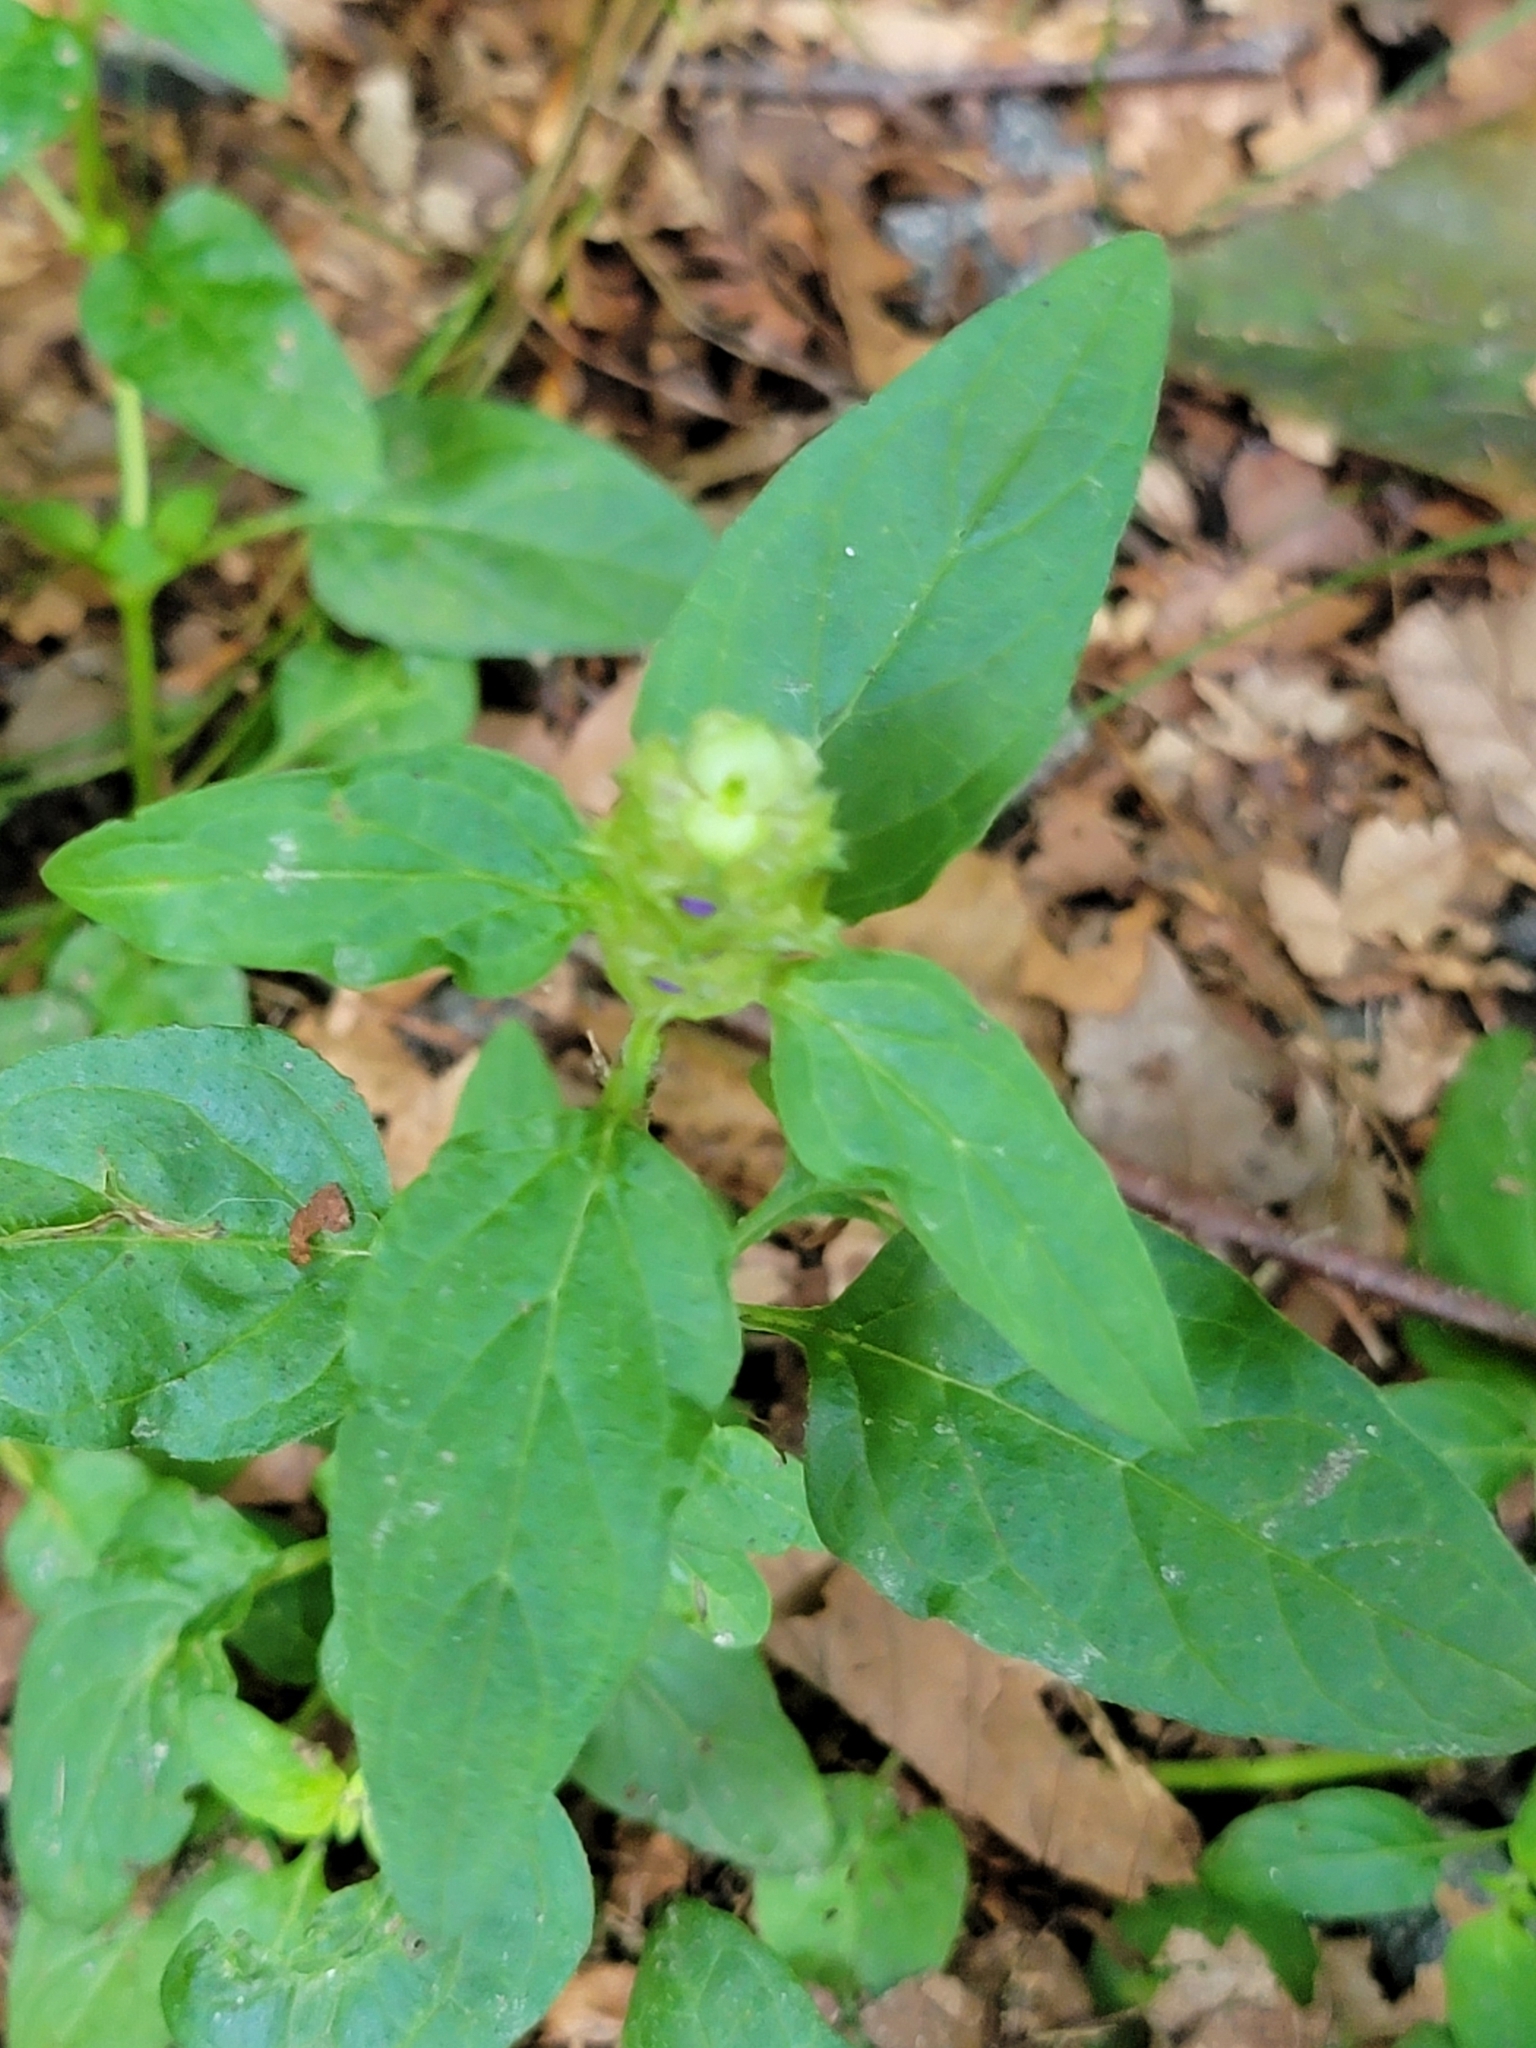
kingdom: Plantae
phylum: Tracheophyta
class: Magnoliopsida
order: Lamiales
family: Lamiaceae
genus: Prunella
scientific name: Prunella vulgaris
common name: Heal-all
